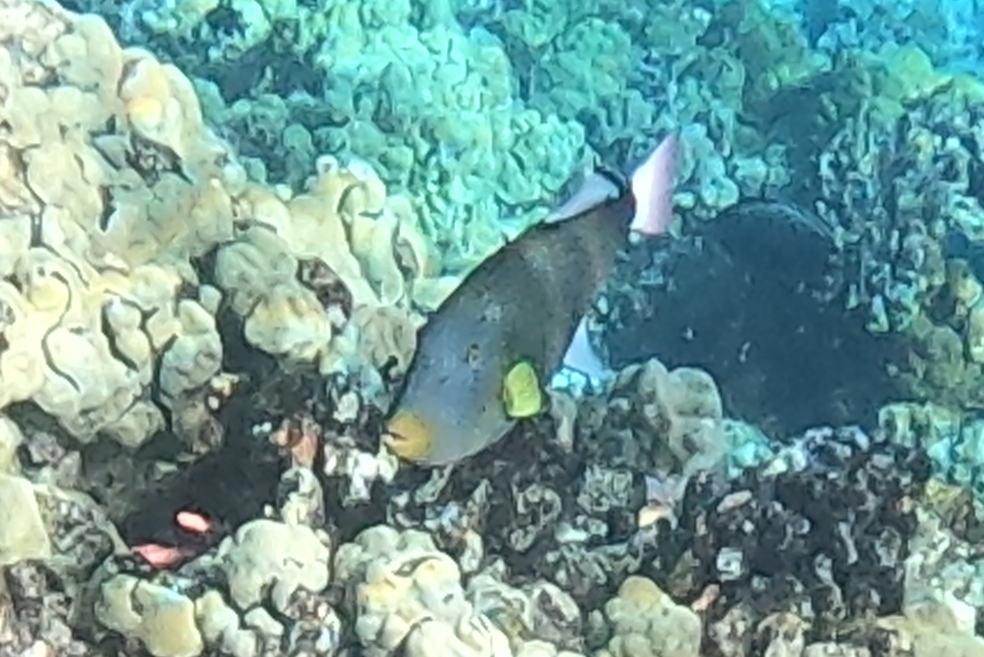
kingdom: Animalia
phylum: Chordata
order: Tetraodontiformes
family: Balistidae
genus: Melichthys
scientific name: Melichthys vidua
